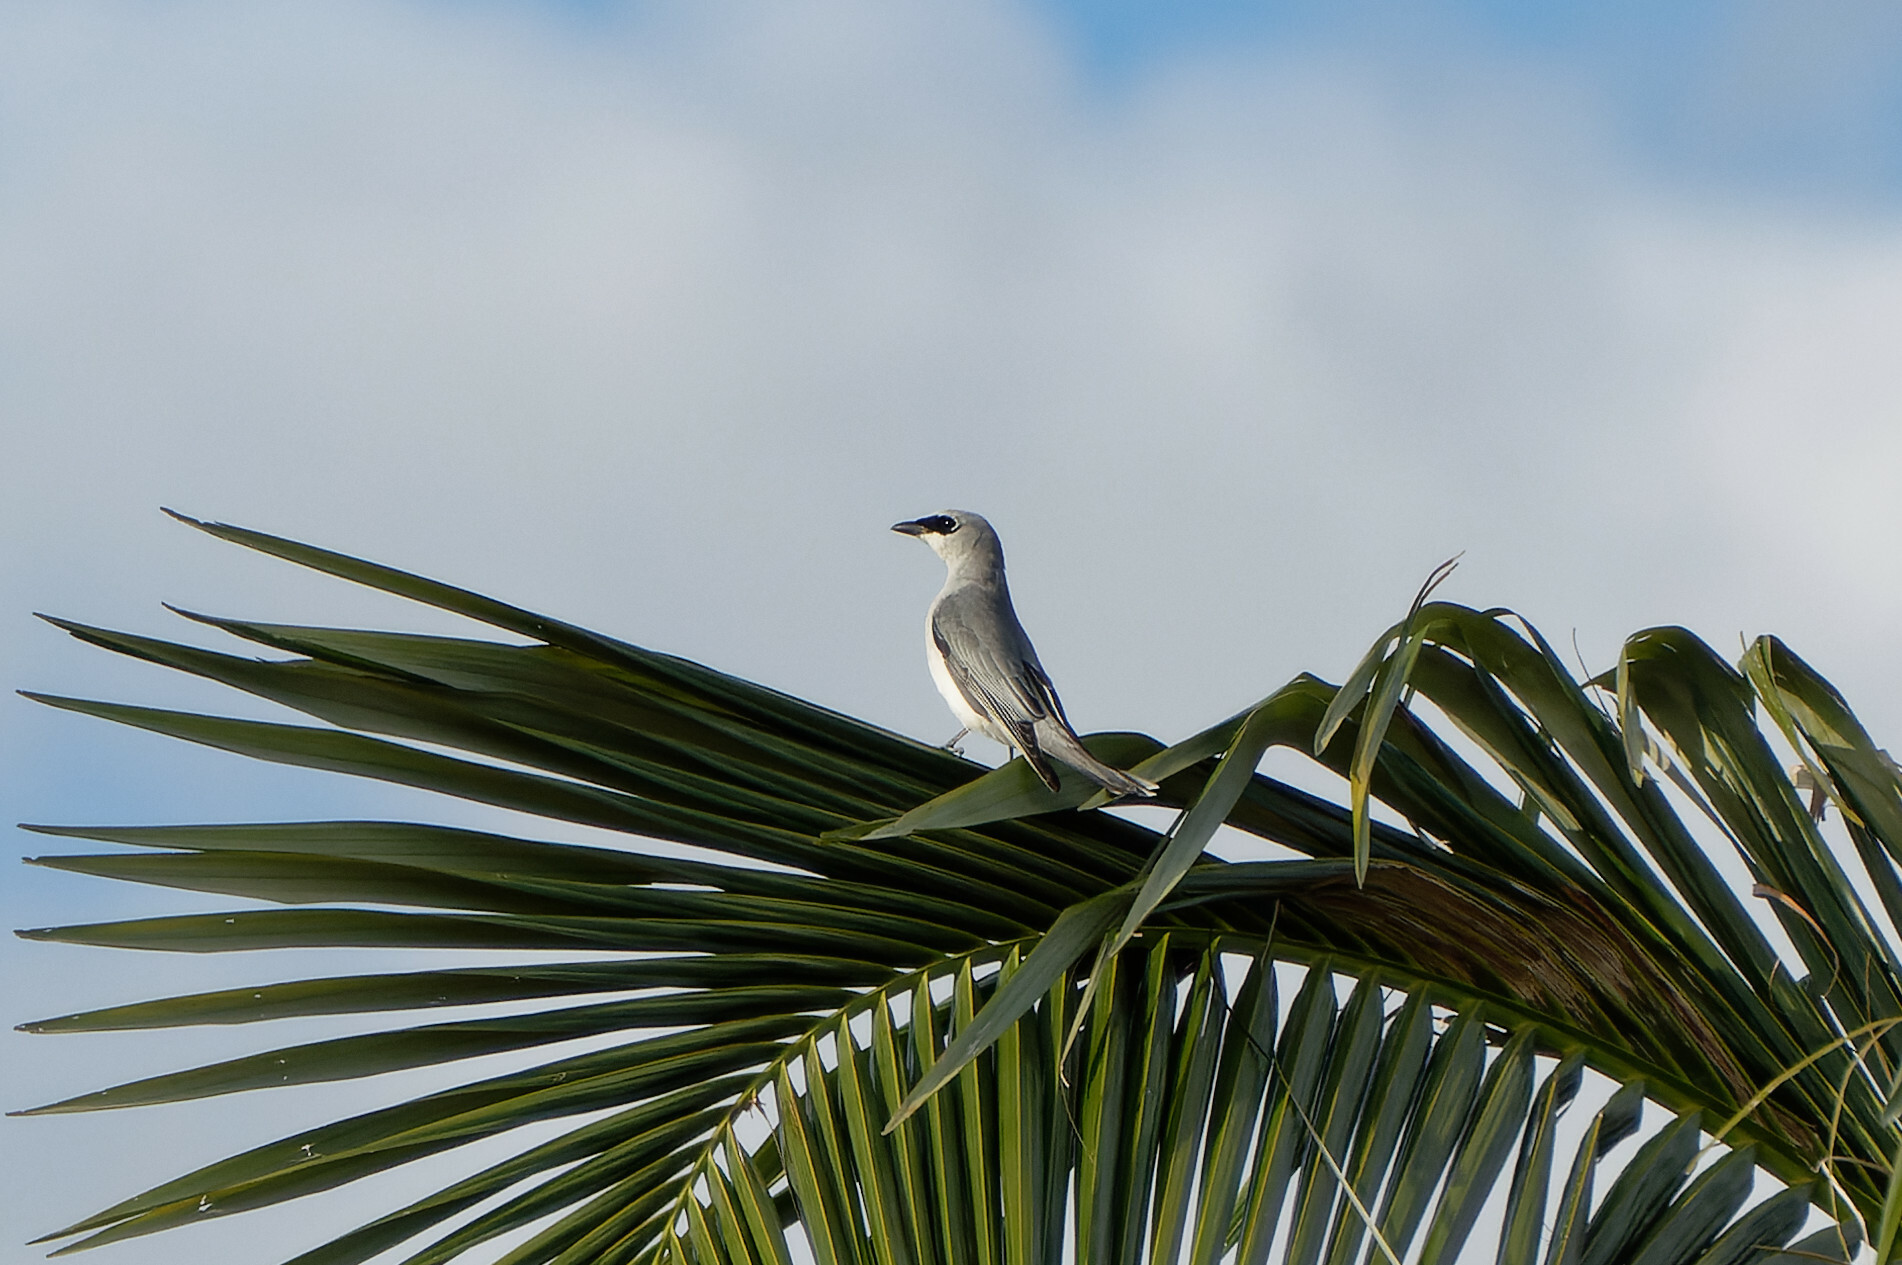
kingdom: Animalia
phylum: Chordata
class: Aves
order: Passeriformes
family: Campephagidae
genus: Coracina
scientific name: Coracina papuensis
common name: White-bellied cuckooshrike
